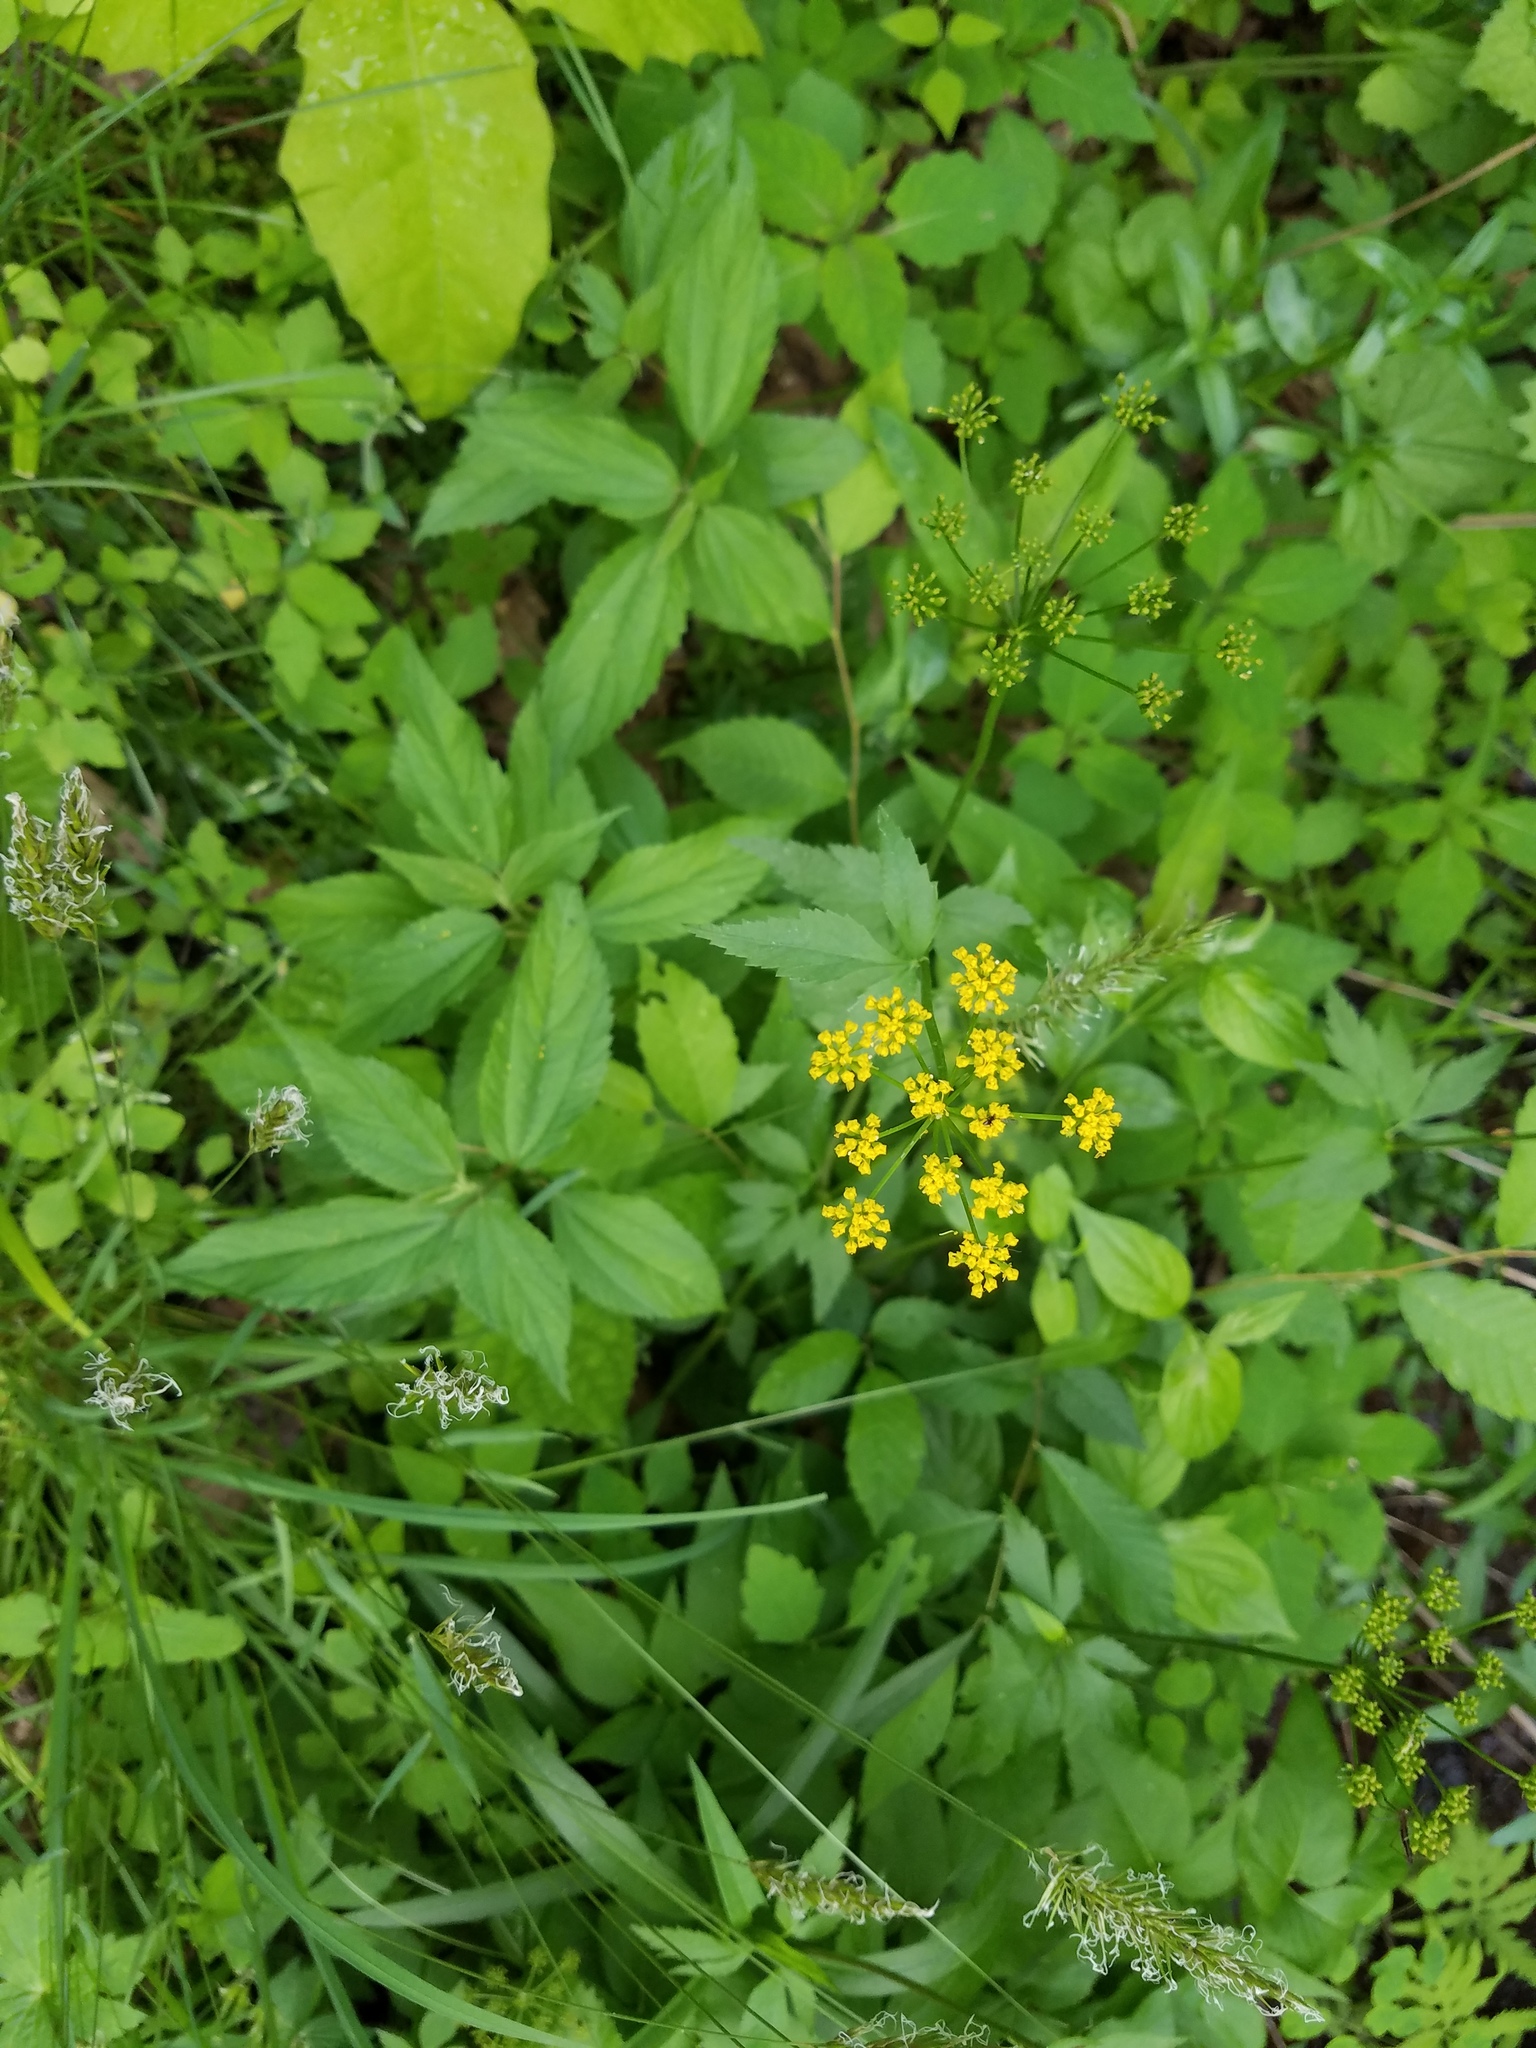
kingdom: Plantae
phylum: Tracheophyta
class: Magnoliopsida
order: Apiales
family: Apiaceae
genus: Zizia
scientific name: Zizia aurea
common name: Golden alexanders
